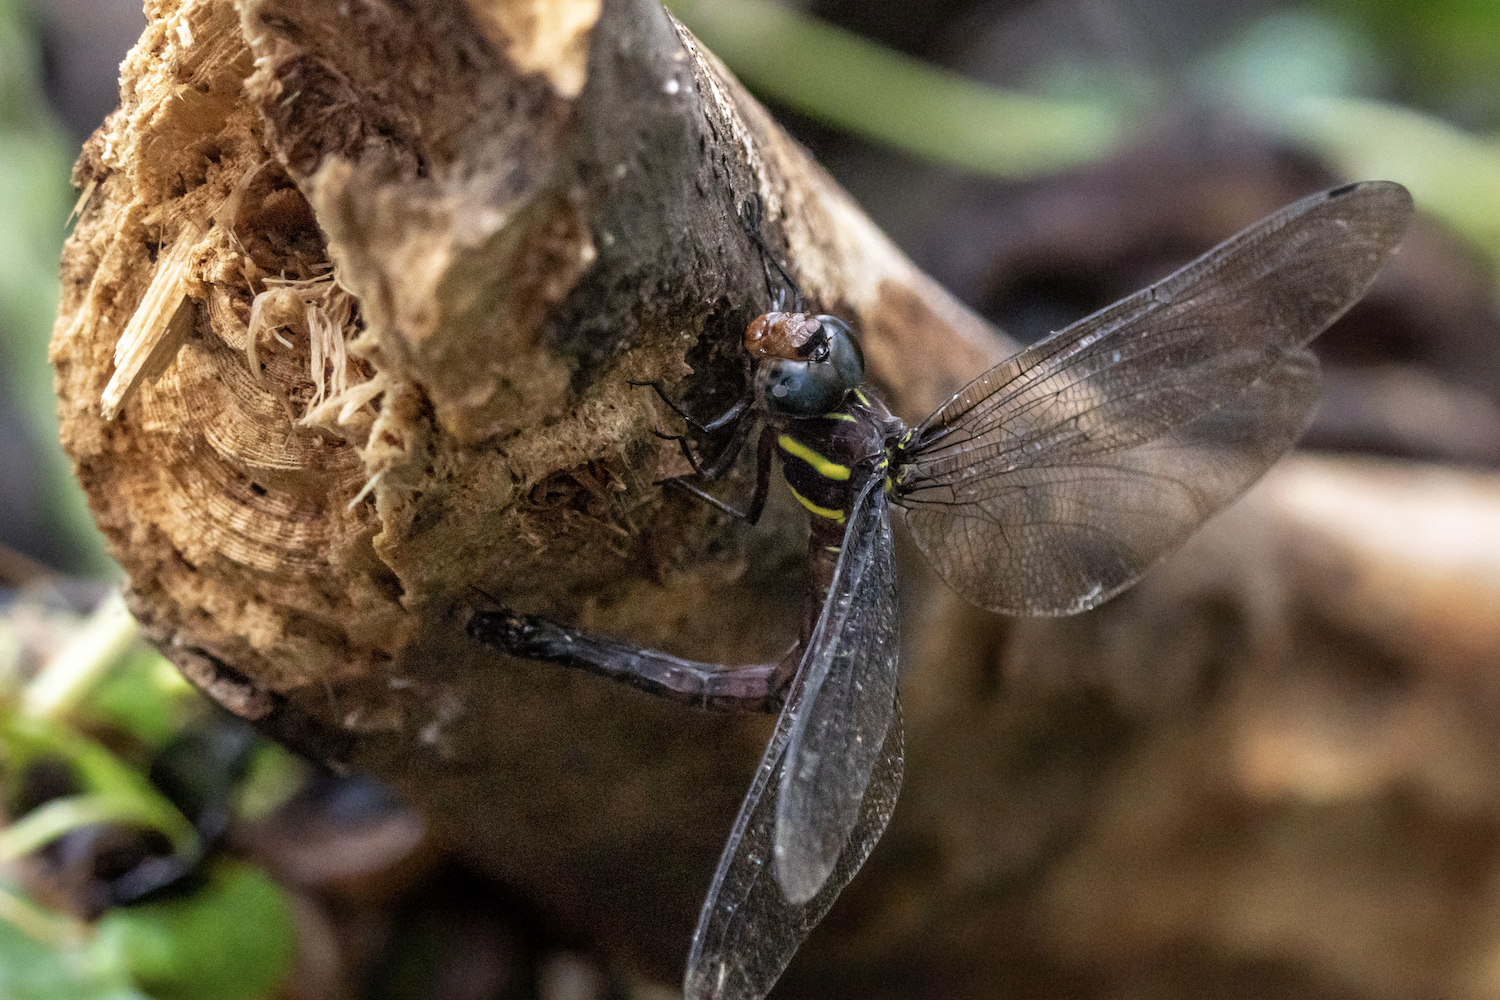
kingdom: Animalia
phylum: Arthropoda
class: Insecta
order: Odonata
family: Aeshnidae
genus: Tetracanthagyna
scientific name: Tetracanthagyna waterhousei
